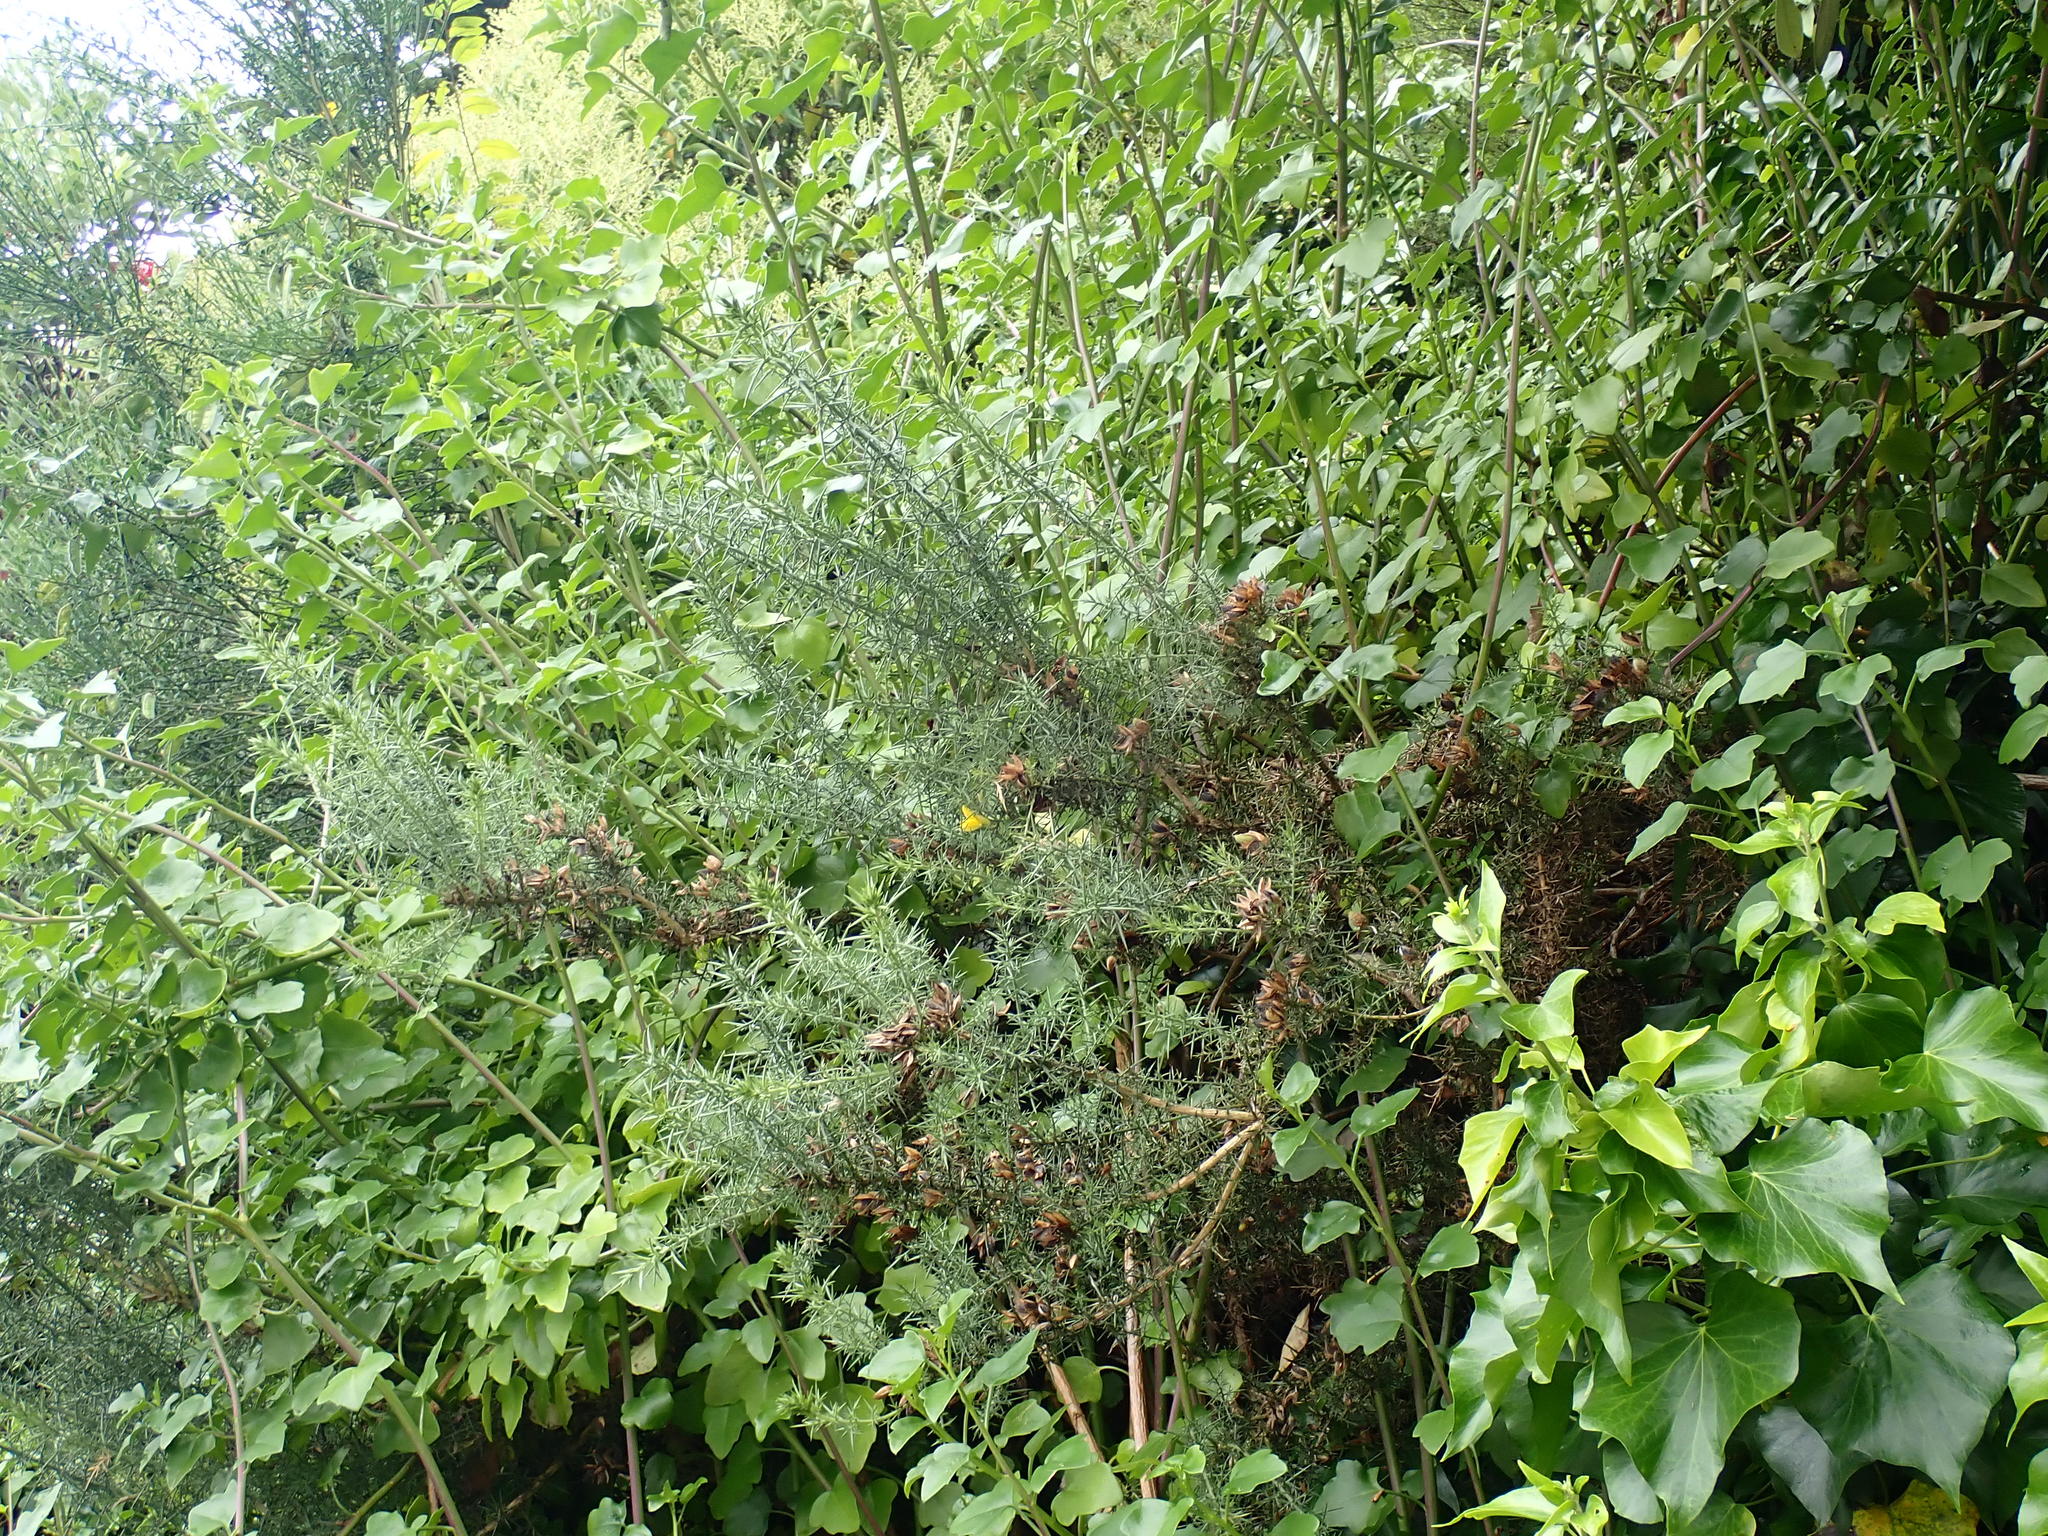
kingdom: Plantae
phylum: Tracheophyta
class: Magnoliopsida
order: Fabales
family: Fabaceae
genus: Ulex
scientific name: Ulex europaeus
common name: Common gorse
